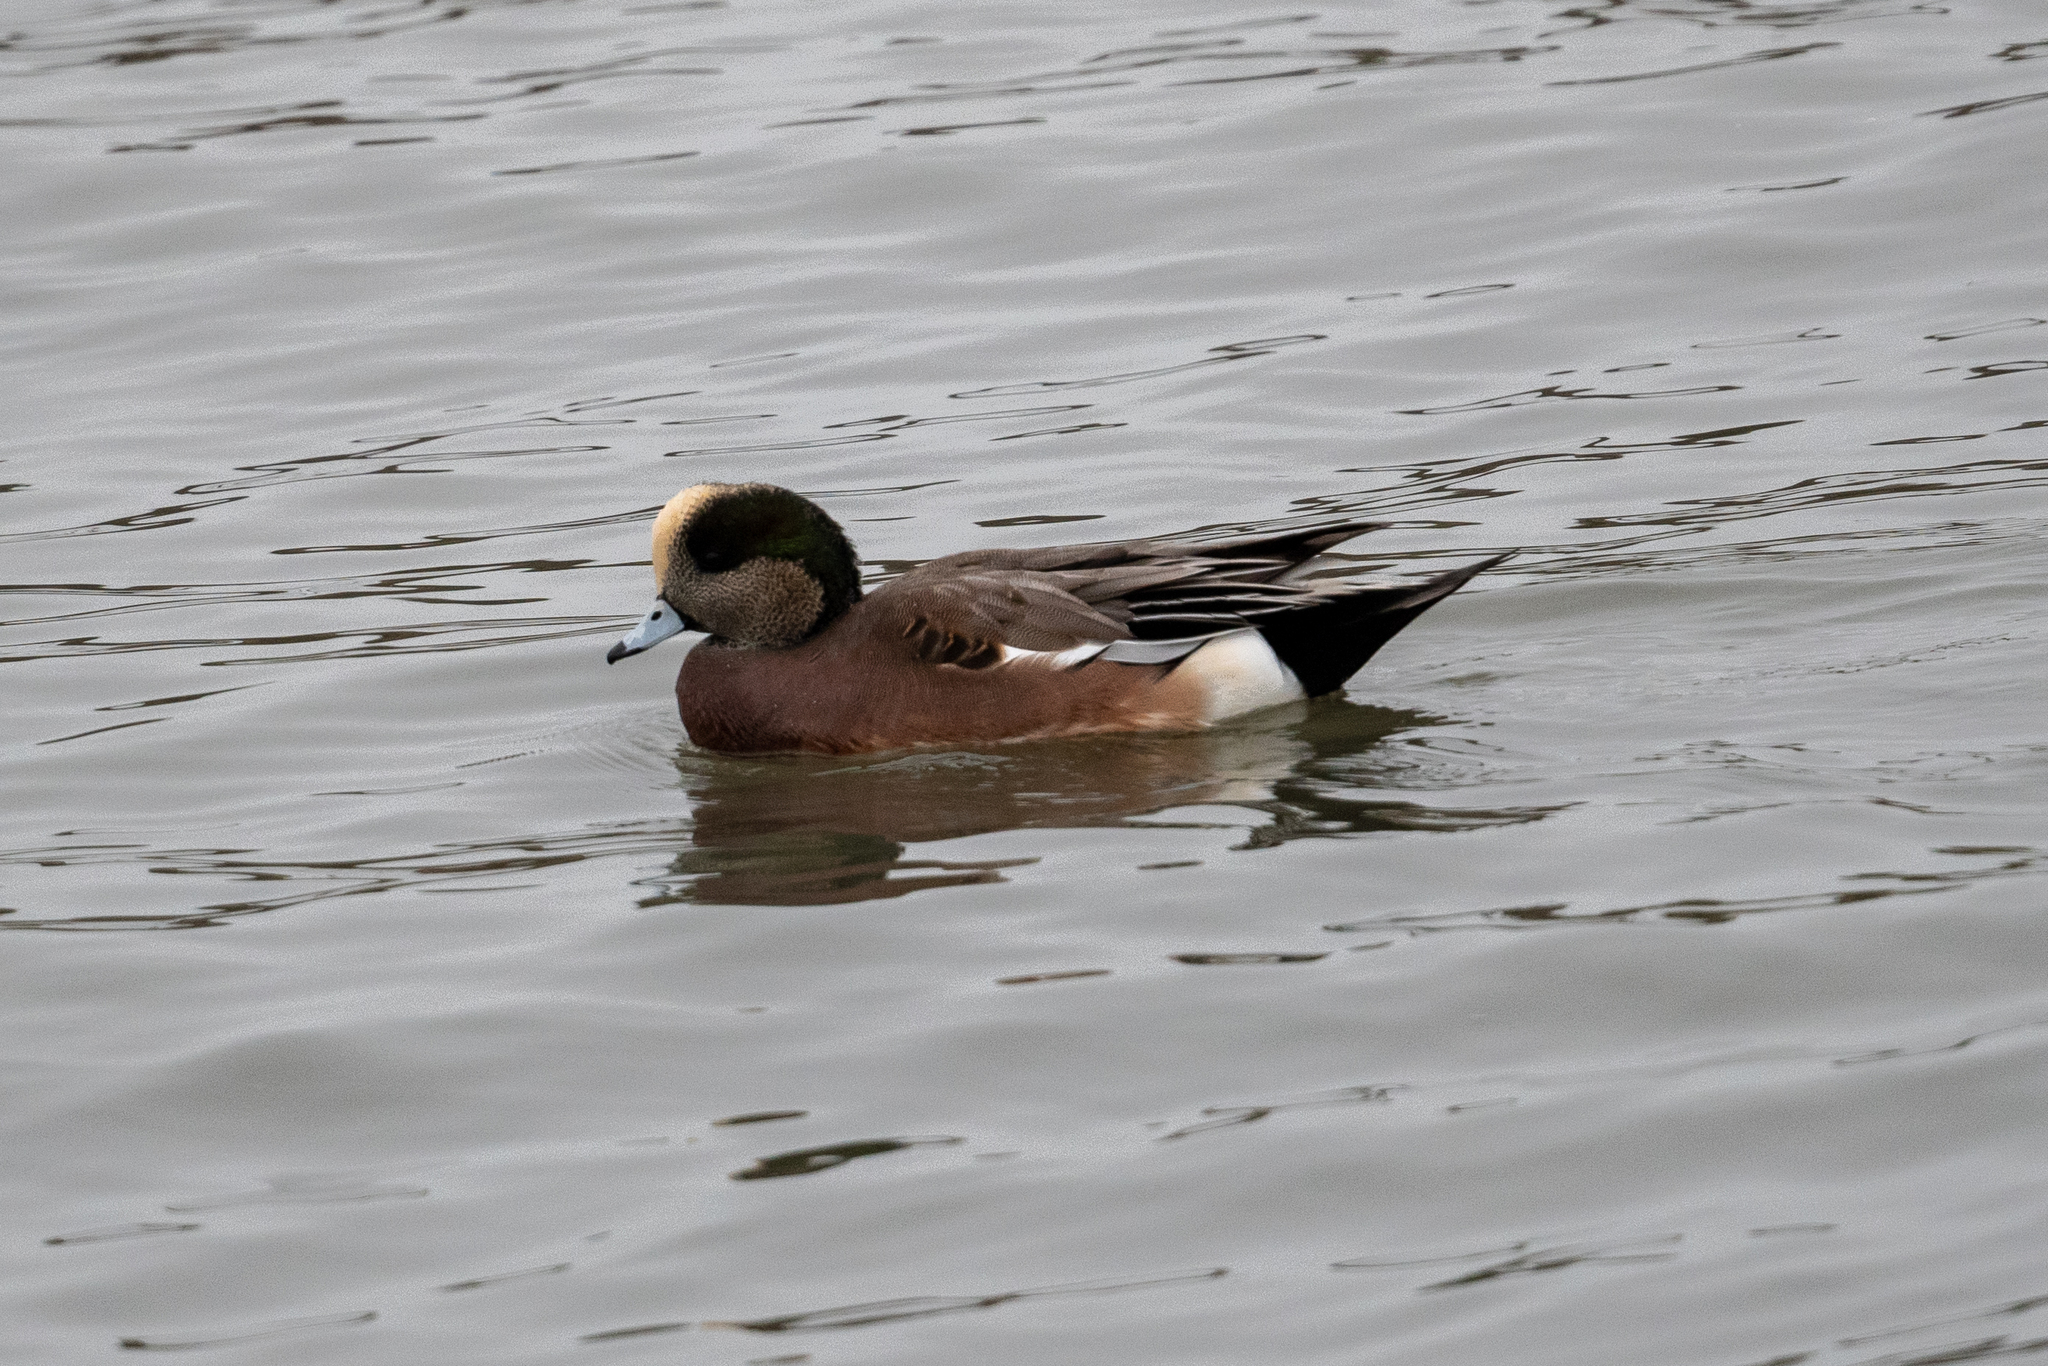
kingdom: Animalia
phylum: Chordata
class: Aves
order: Anseriformes
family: Anatidae
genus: Mareca
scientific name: Mareca americana
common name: American wigeon
